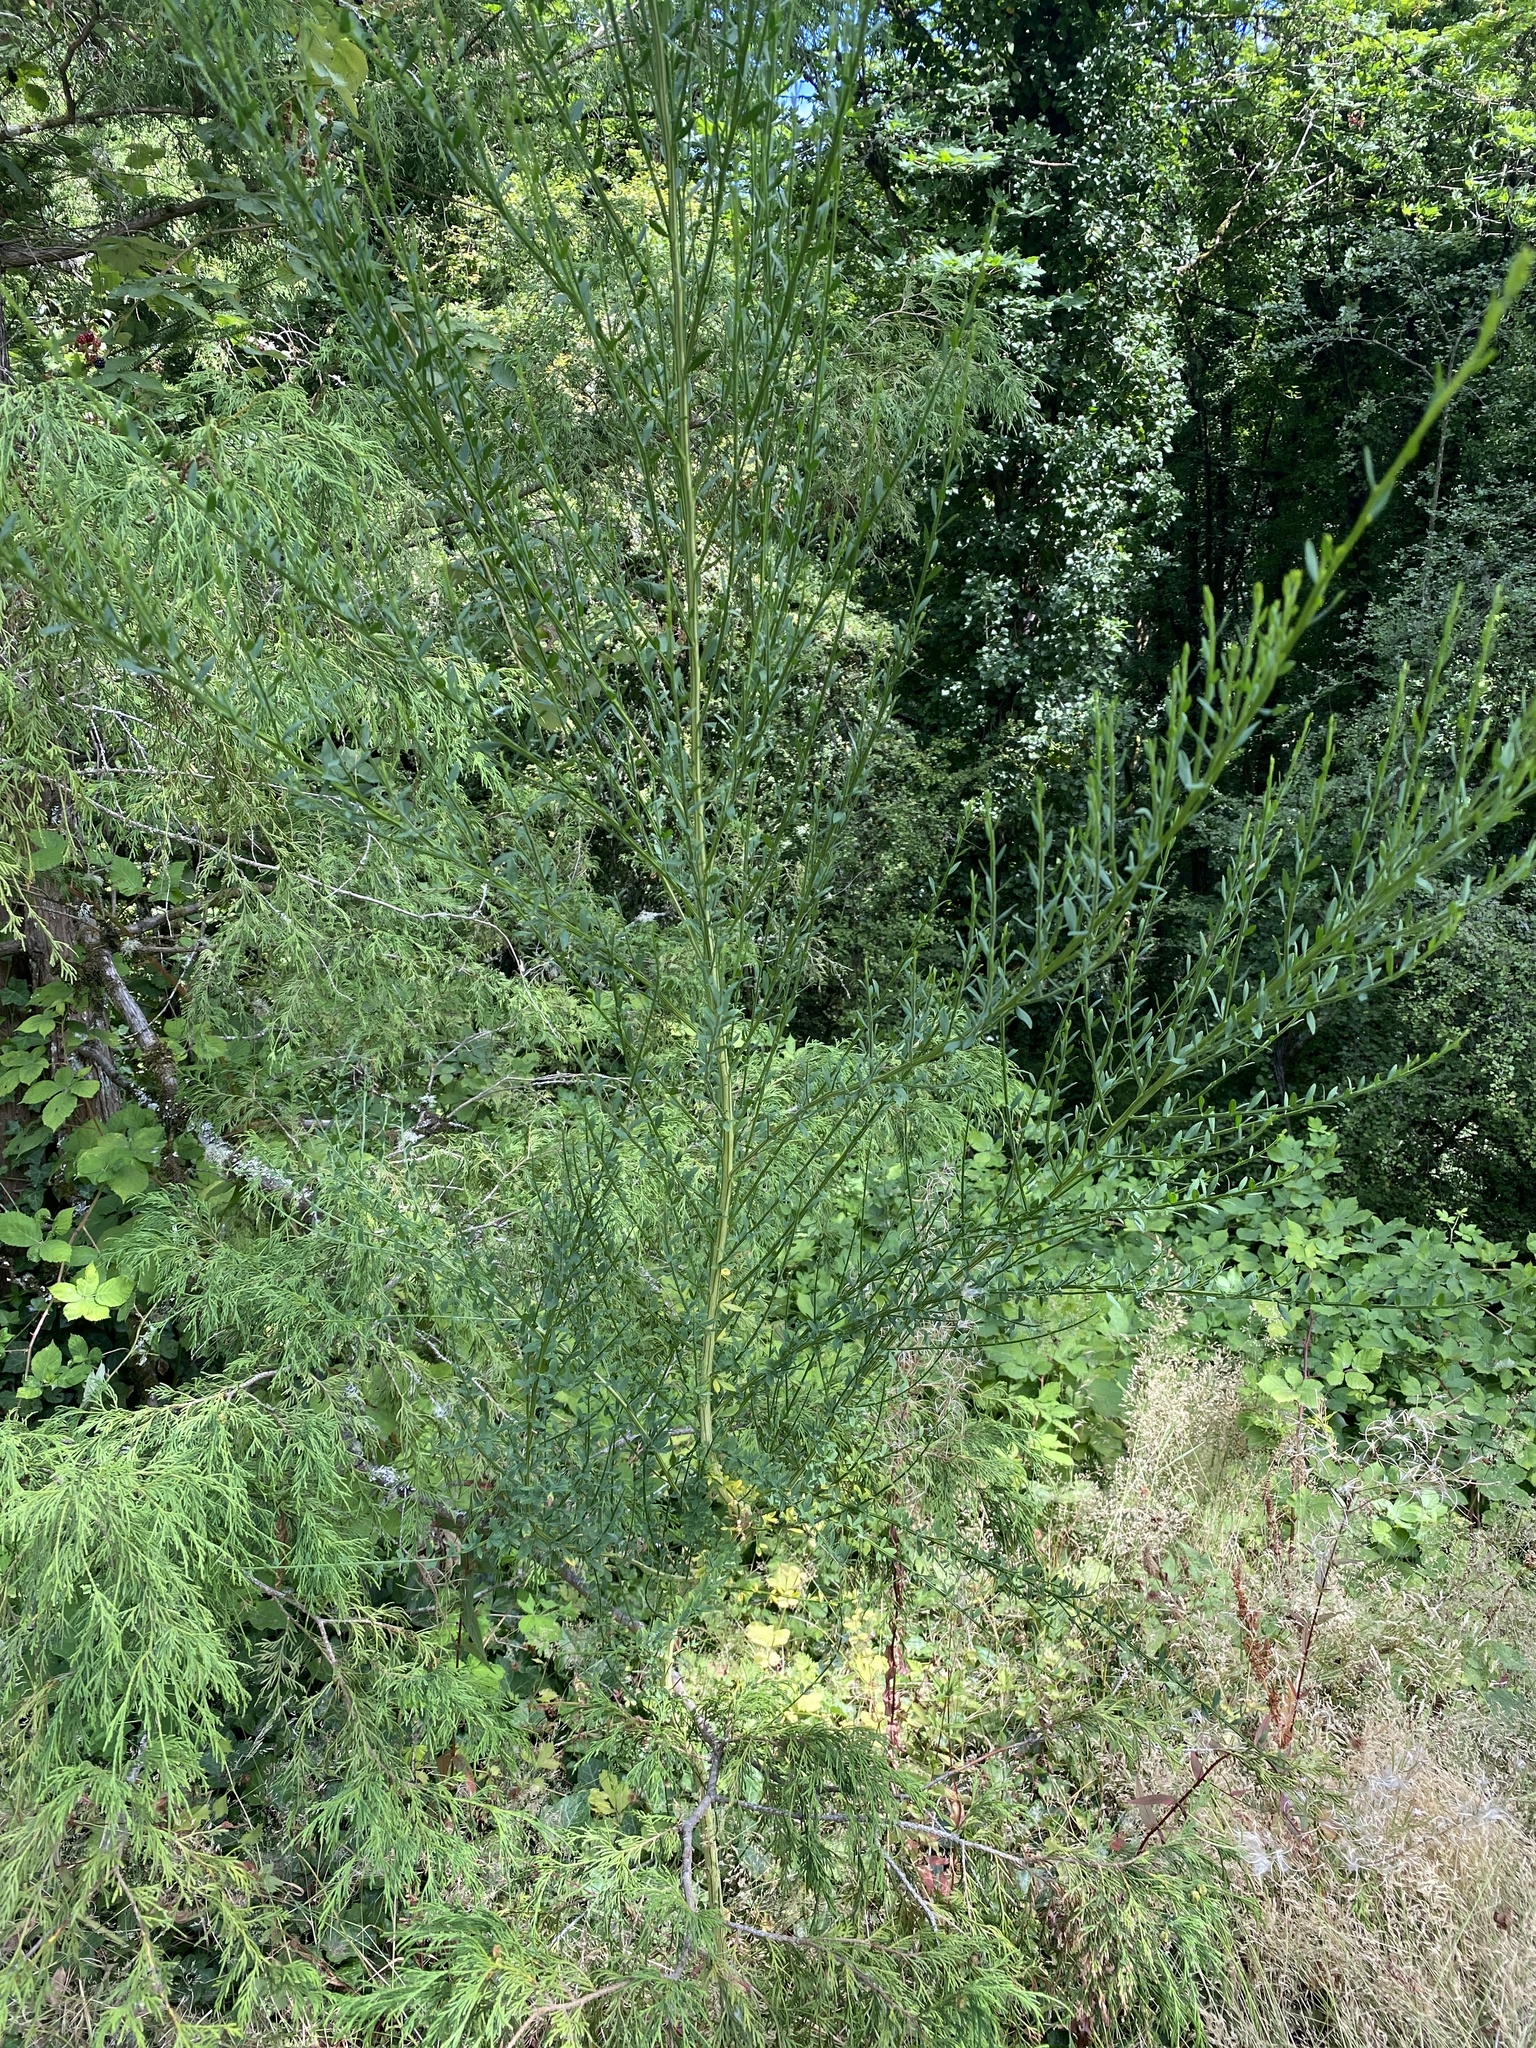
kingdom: Plantae
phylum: Tracheophyta
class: Magnoliopsida
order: Fabales
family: Fabaceae
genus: Cytisus
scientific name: Cytisus scoparius
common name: Scotch broom
